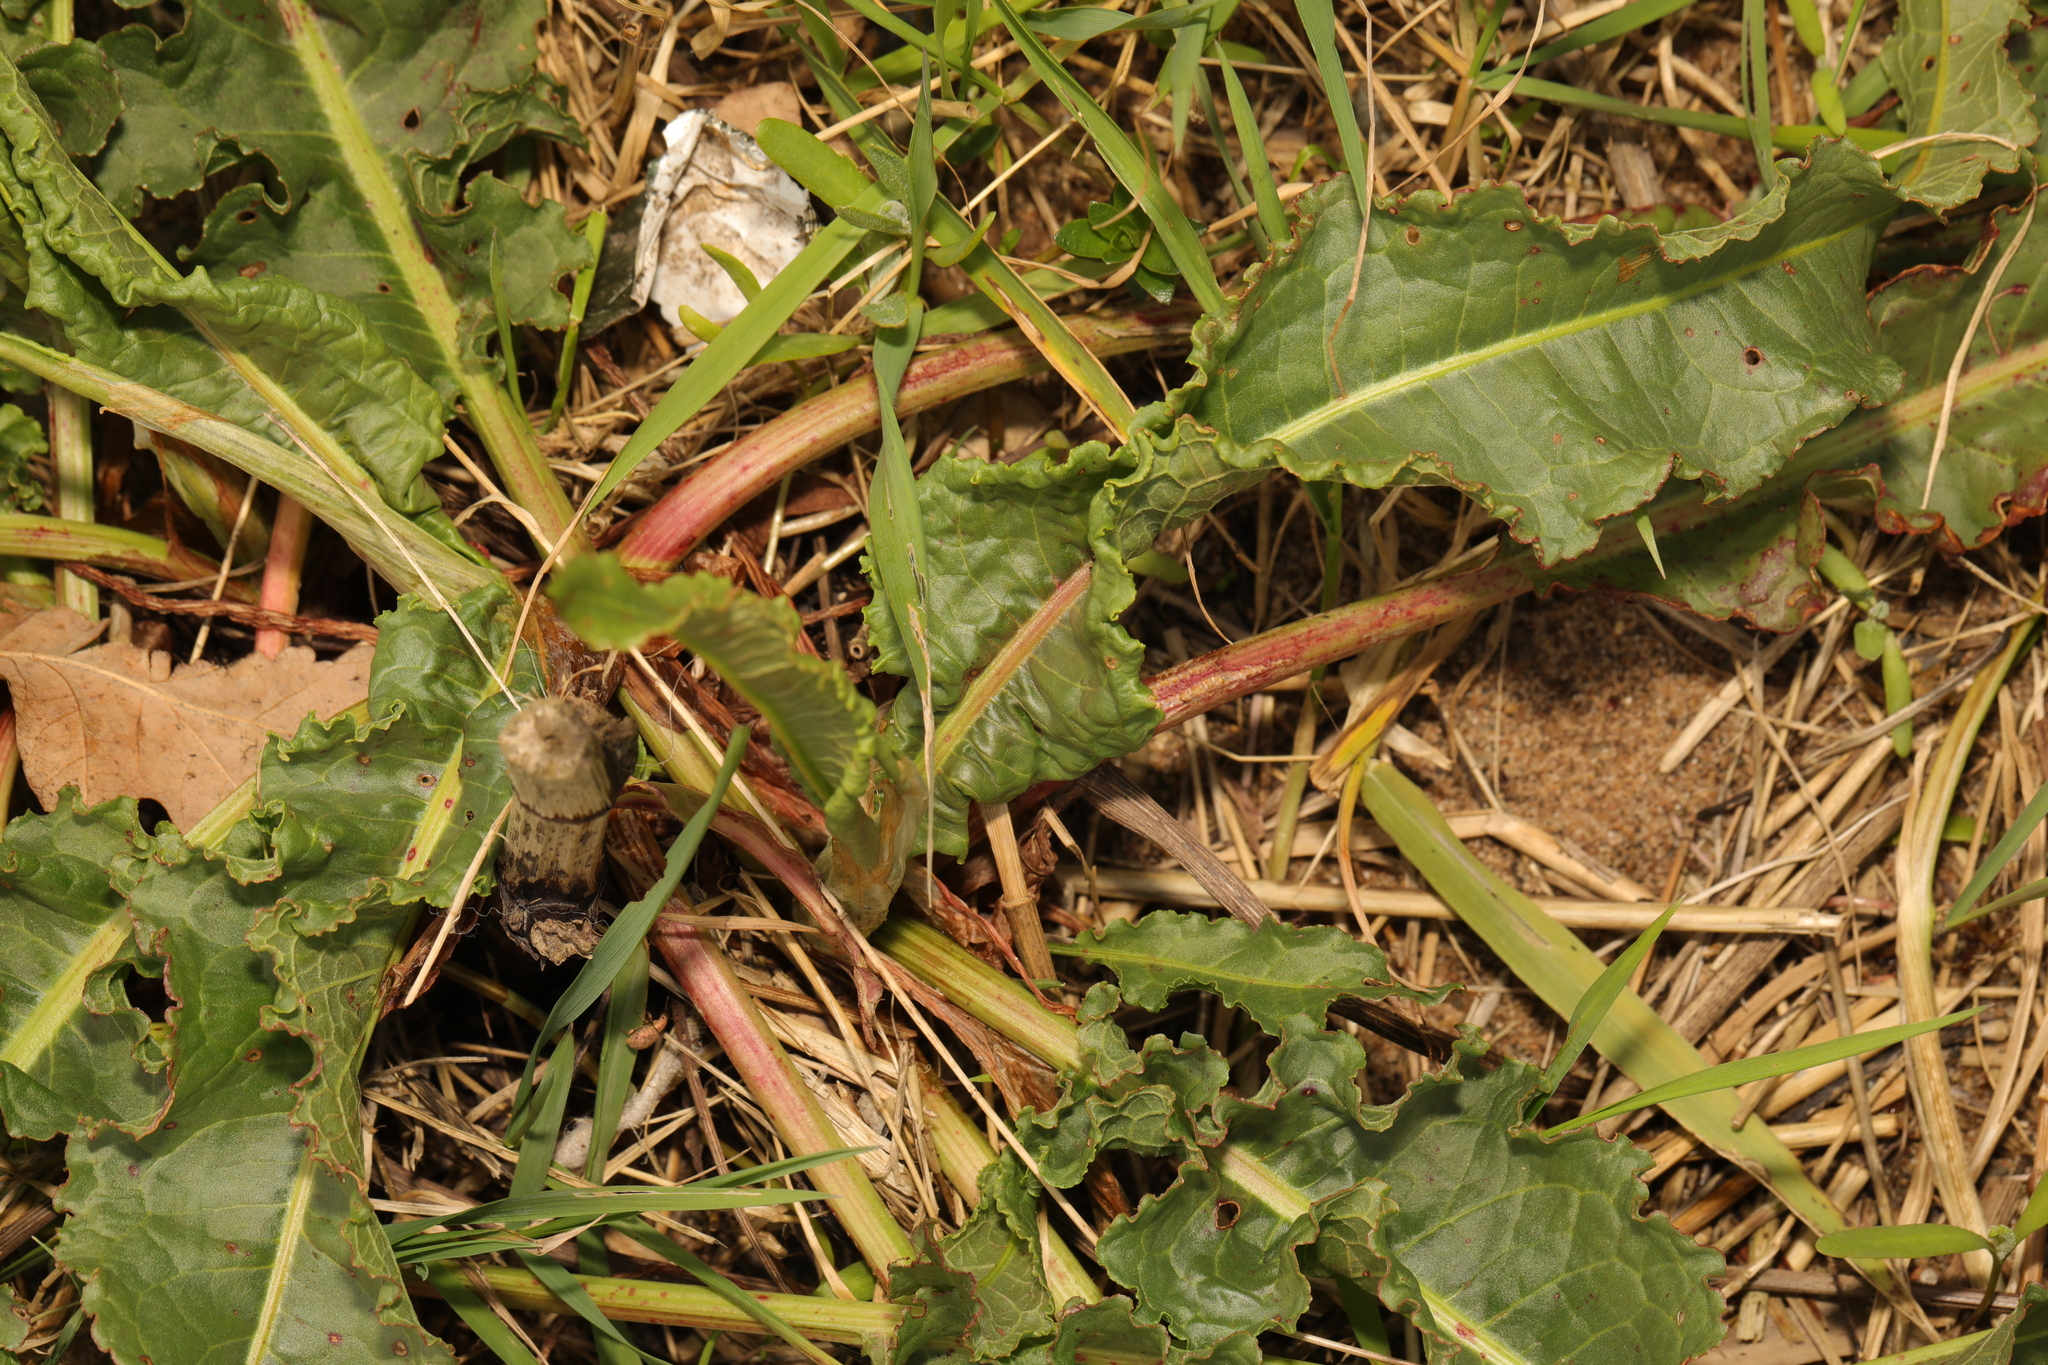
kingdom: Plantae
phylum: Tracheophyta
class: Magnoliopsida
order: Caryophyllales
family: Polygonaceae
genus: Rumex
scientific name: Rumex crispus
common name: Curled dock
